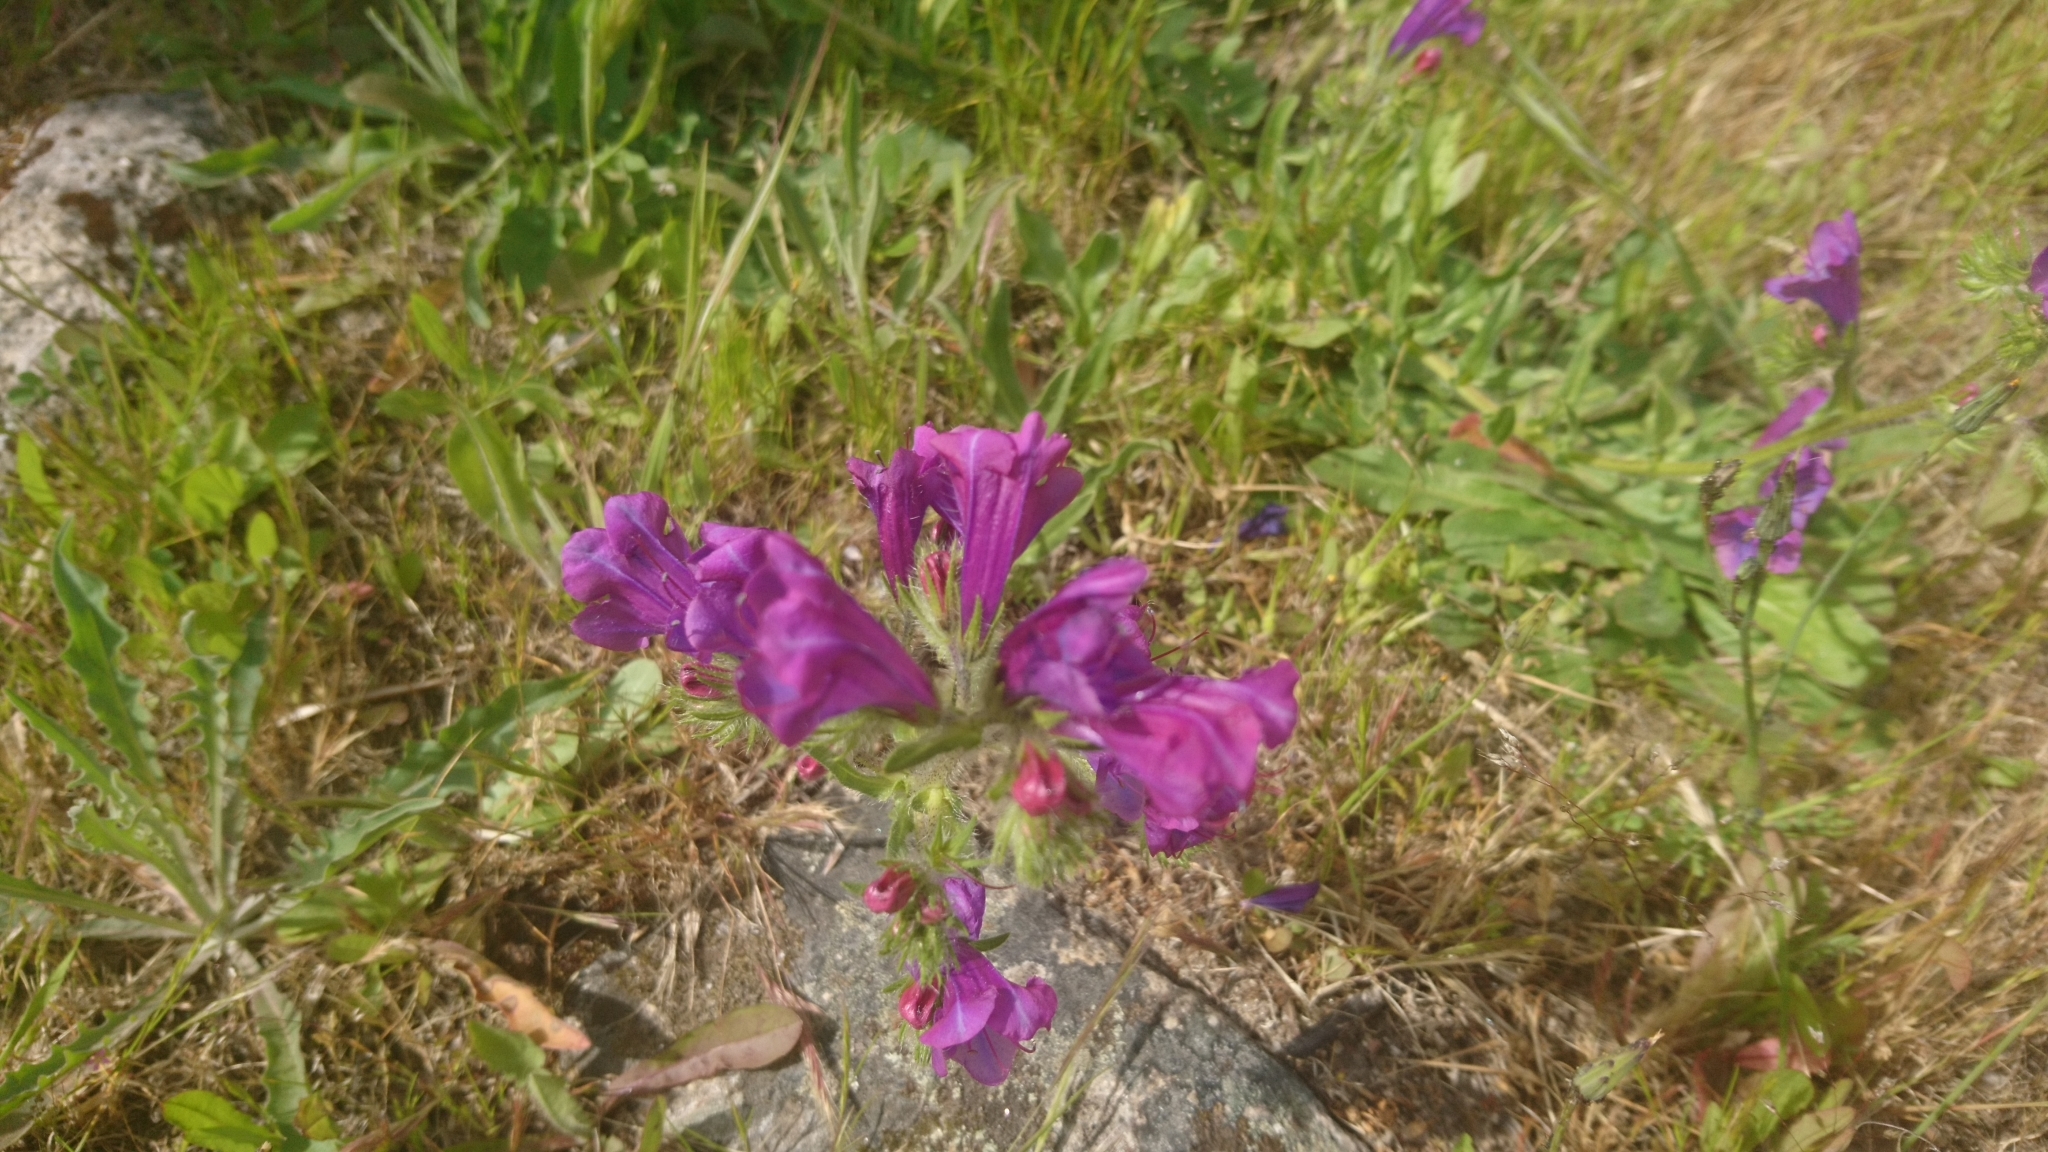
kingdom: Plantae
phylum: Tracheophyta
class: Magnoliopsida
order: Boraginales
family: Boraginaceae
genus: Echium
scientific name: Echium plantagineum
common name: Purple viper's-bugloss
